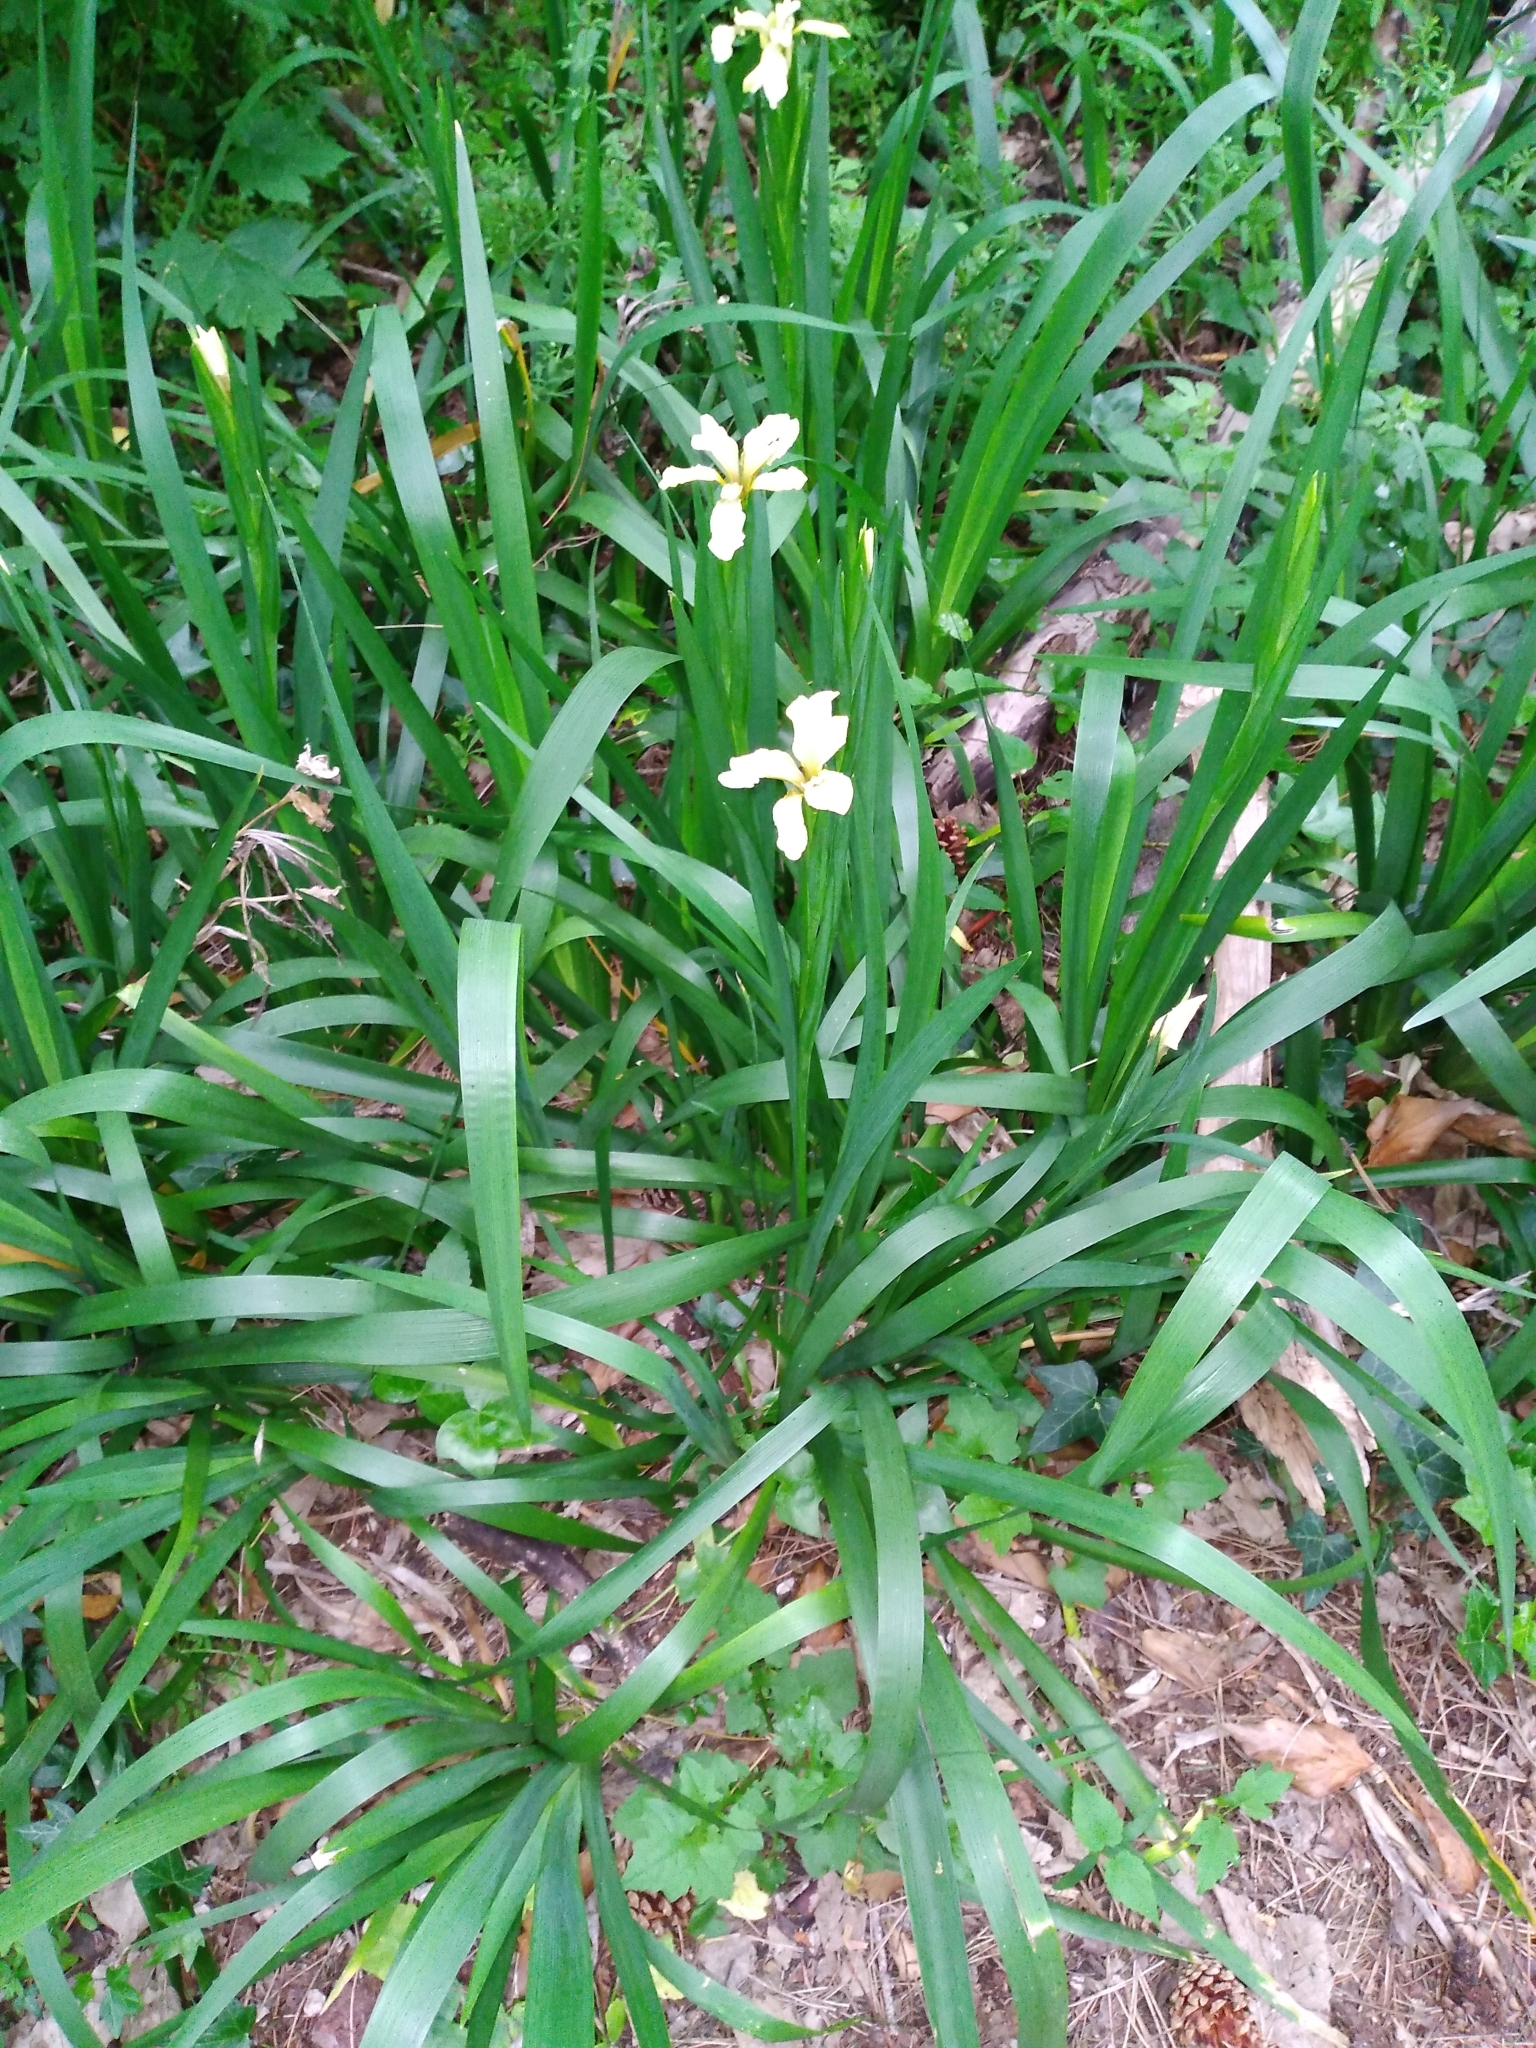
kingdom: Plantae
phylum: Tracheophyta
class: Liliopsida
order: Asparagales
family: Iridaceae
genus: Iris
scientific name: Iris foetidissima
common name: Stinking iris
